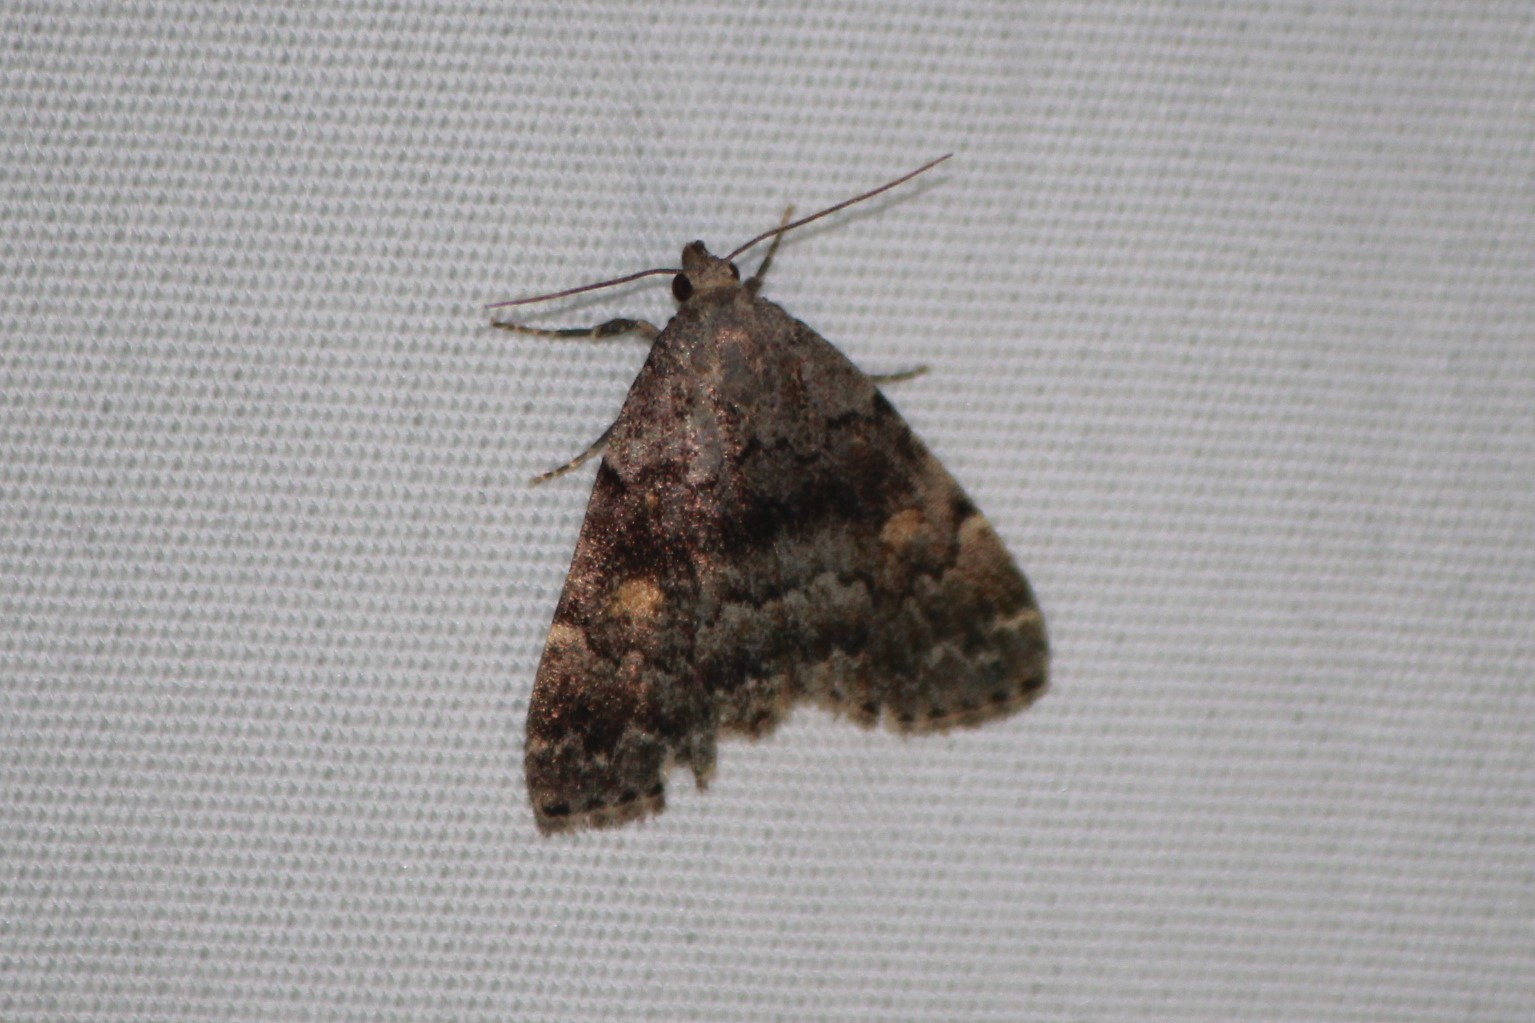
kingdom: Animalia
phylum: Arthropoda
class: Insecta
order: Lepidoptera
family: Erebidae
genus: Idia
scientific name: Idia americalis
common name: American idia moth
